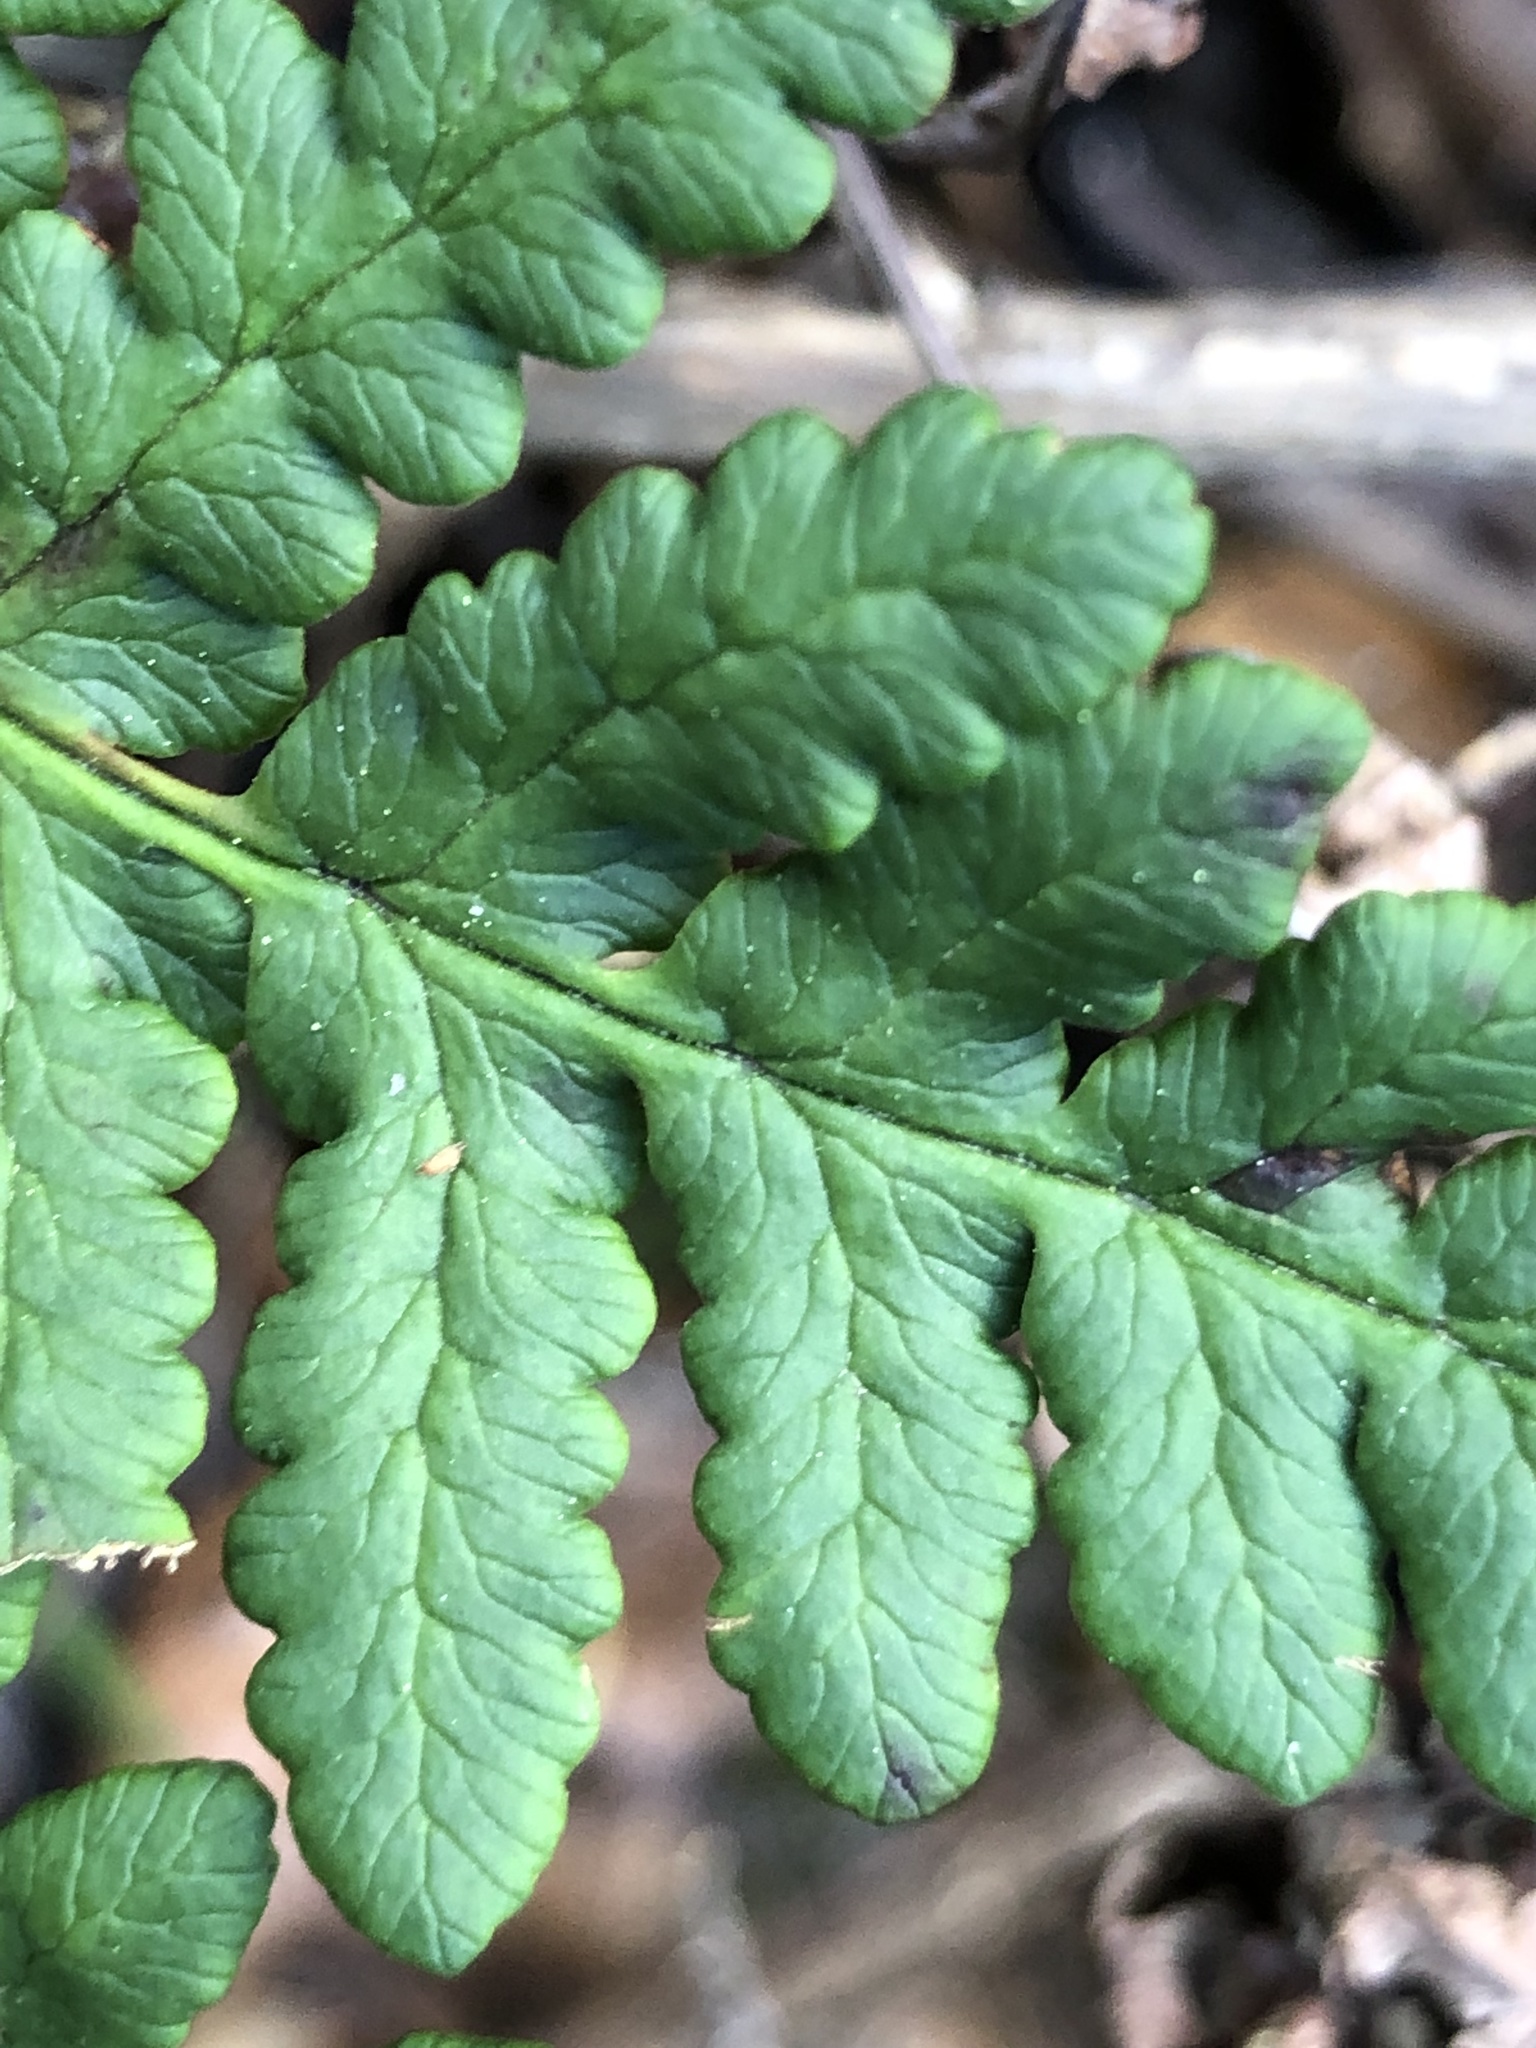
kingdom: Plantae
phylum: Tracheophyta
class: Polypodiopsida
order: Polypodiales
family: Pteridaceae
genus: Pentagramma
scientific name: Pentagramma triangularis
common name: Gold fern
